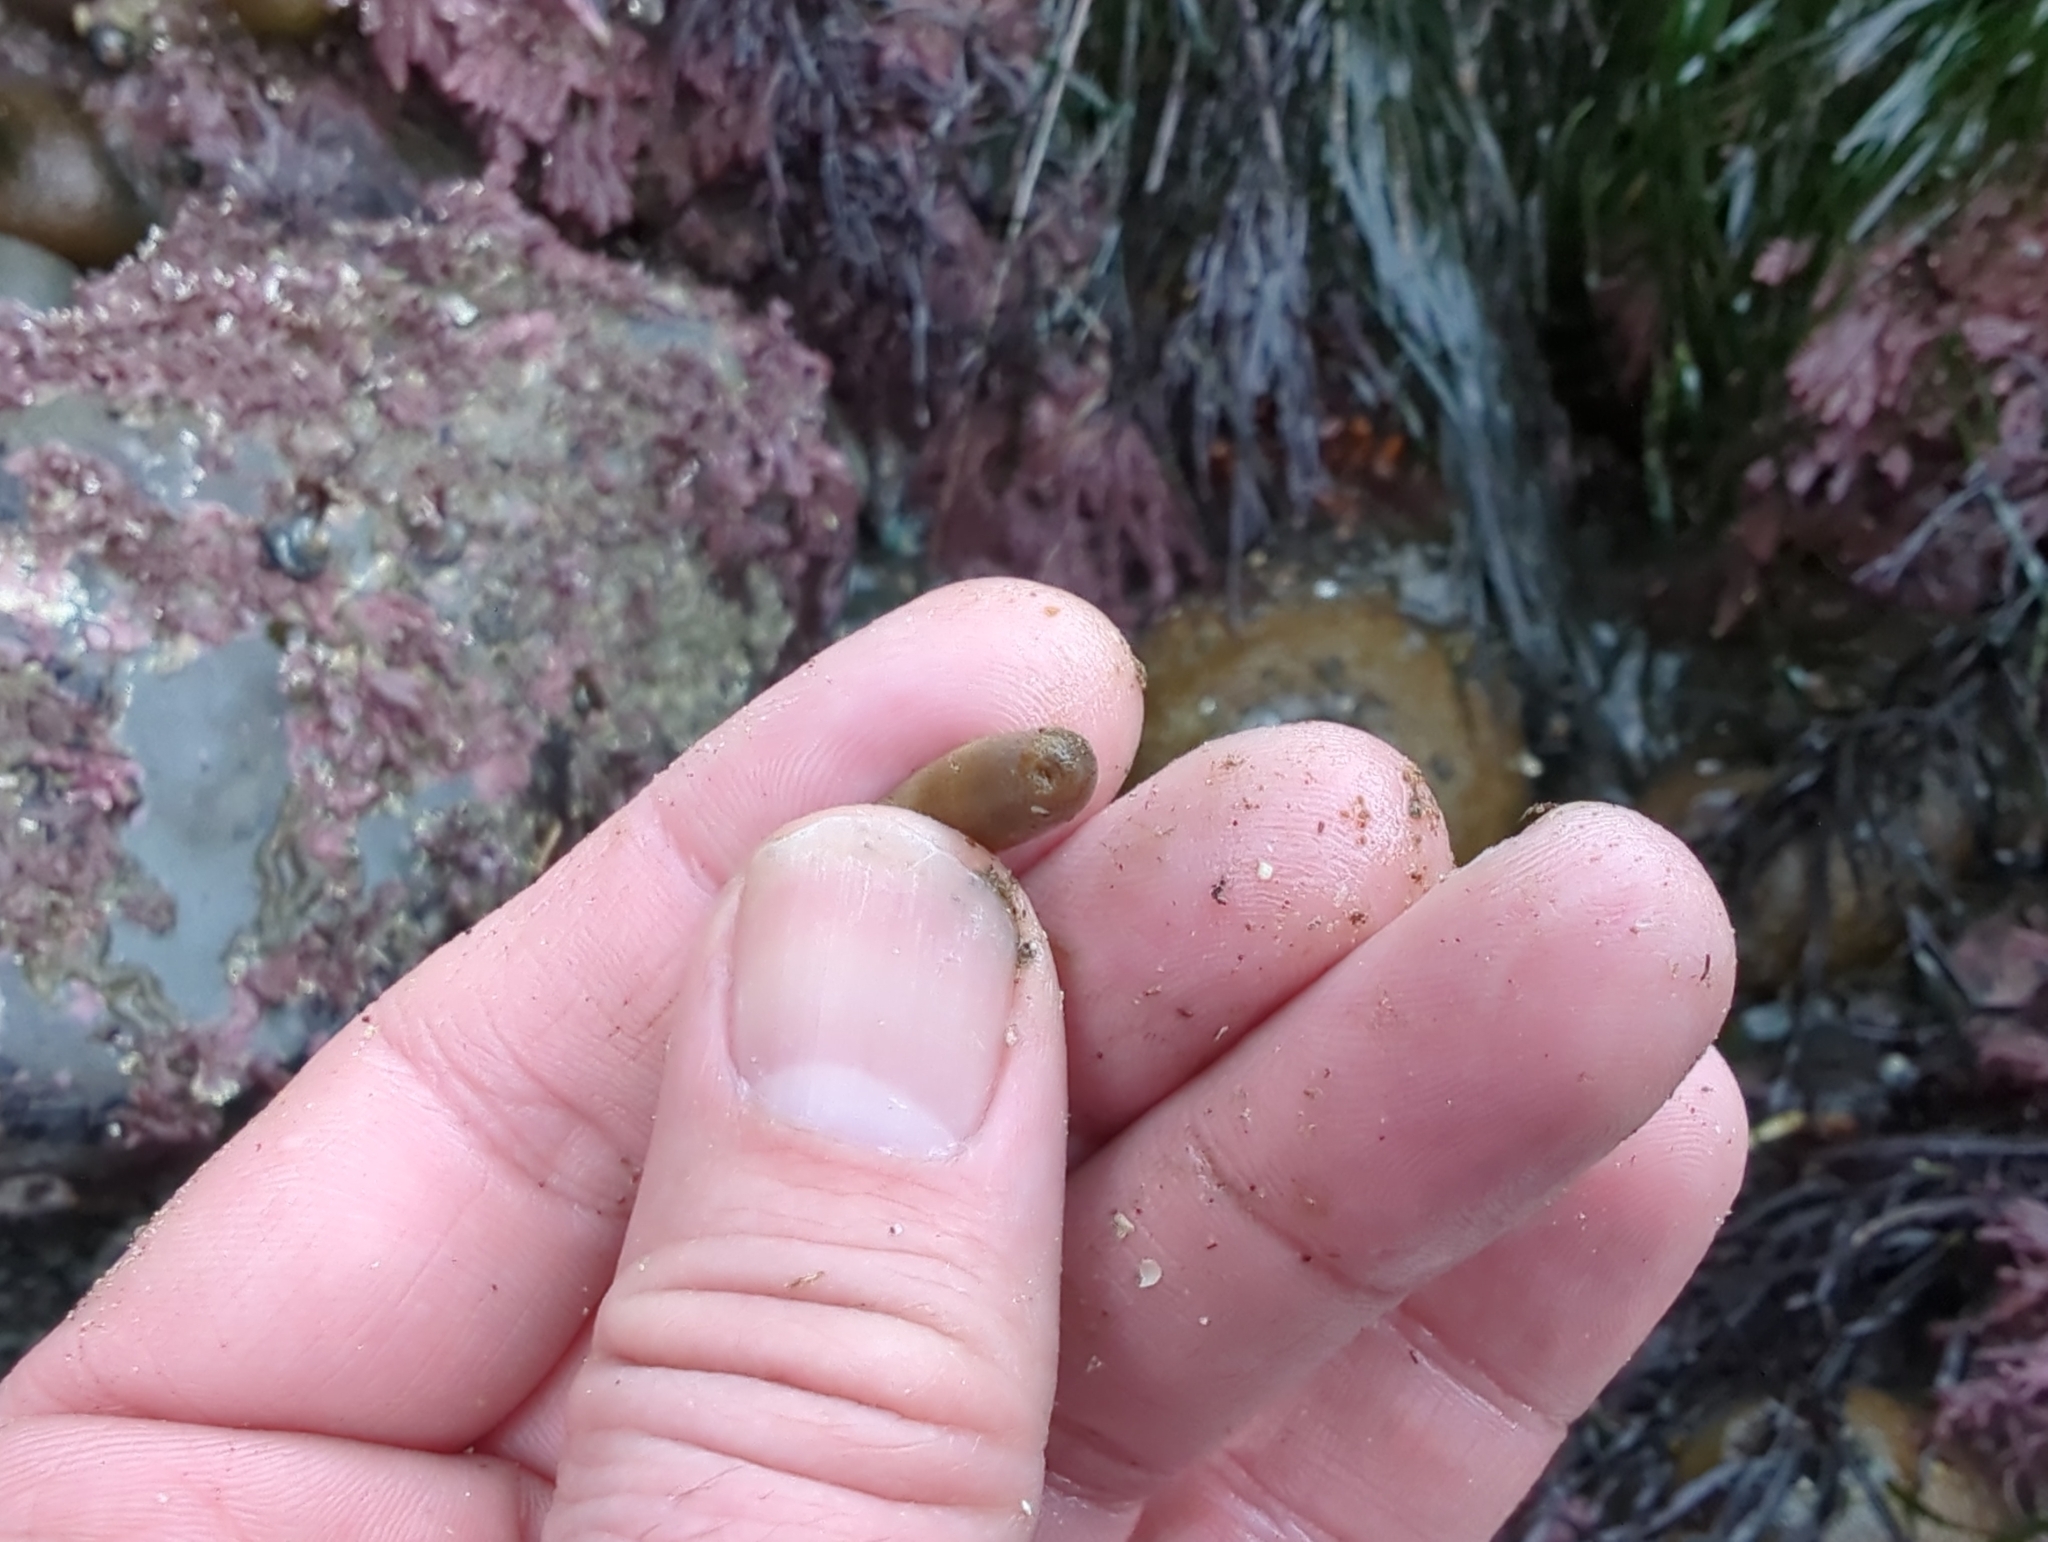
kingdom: Animalia
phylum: Sipuncula
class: Phascolosomatidea
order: Phascolosomatiformes
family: Phascolosomatidae
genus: Phascolosoma
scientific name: Phascolosoma agassizii
